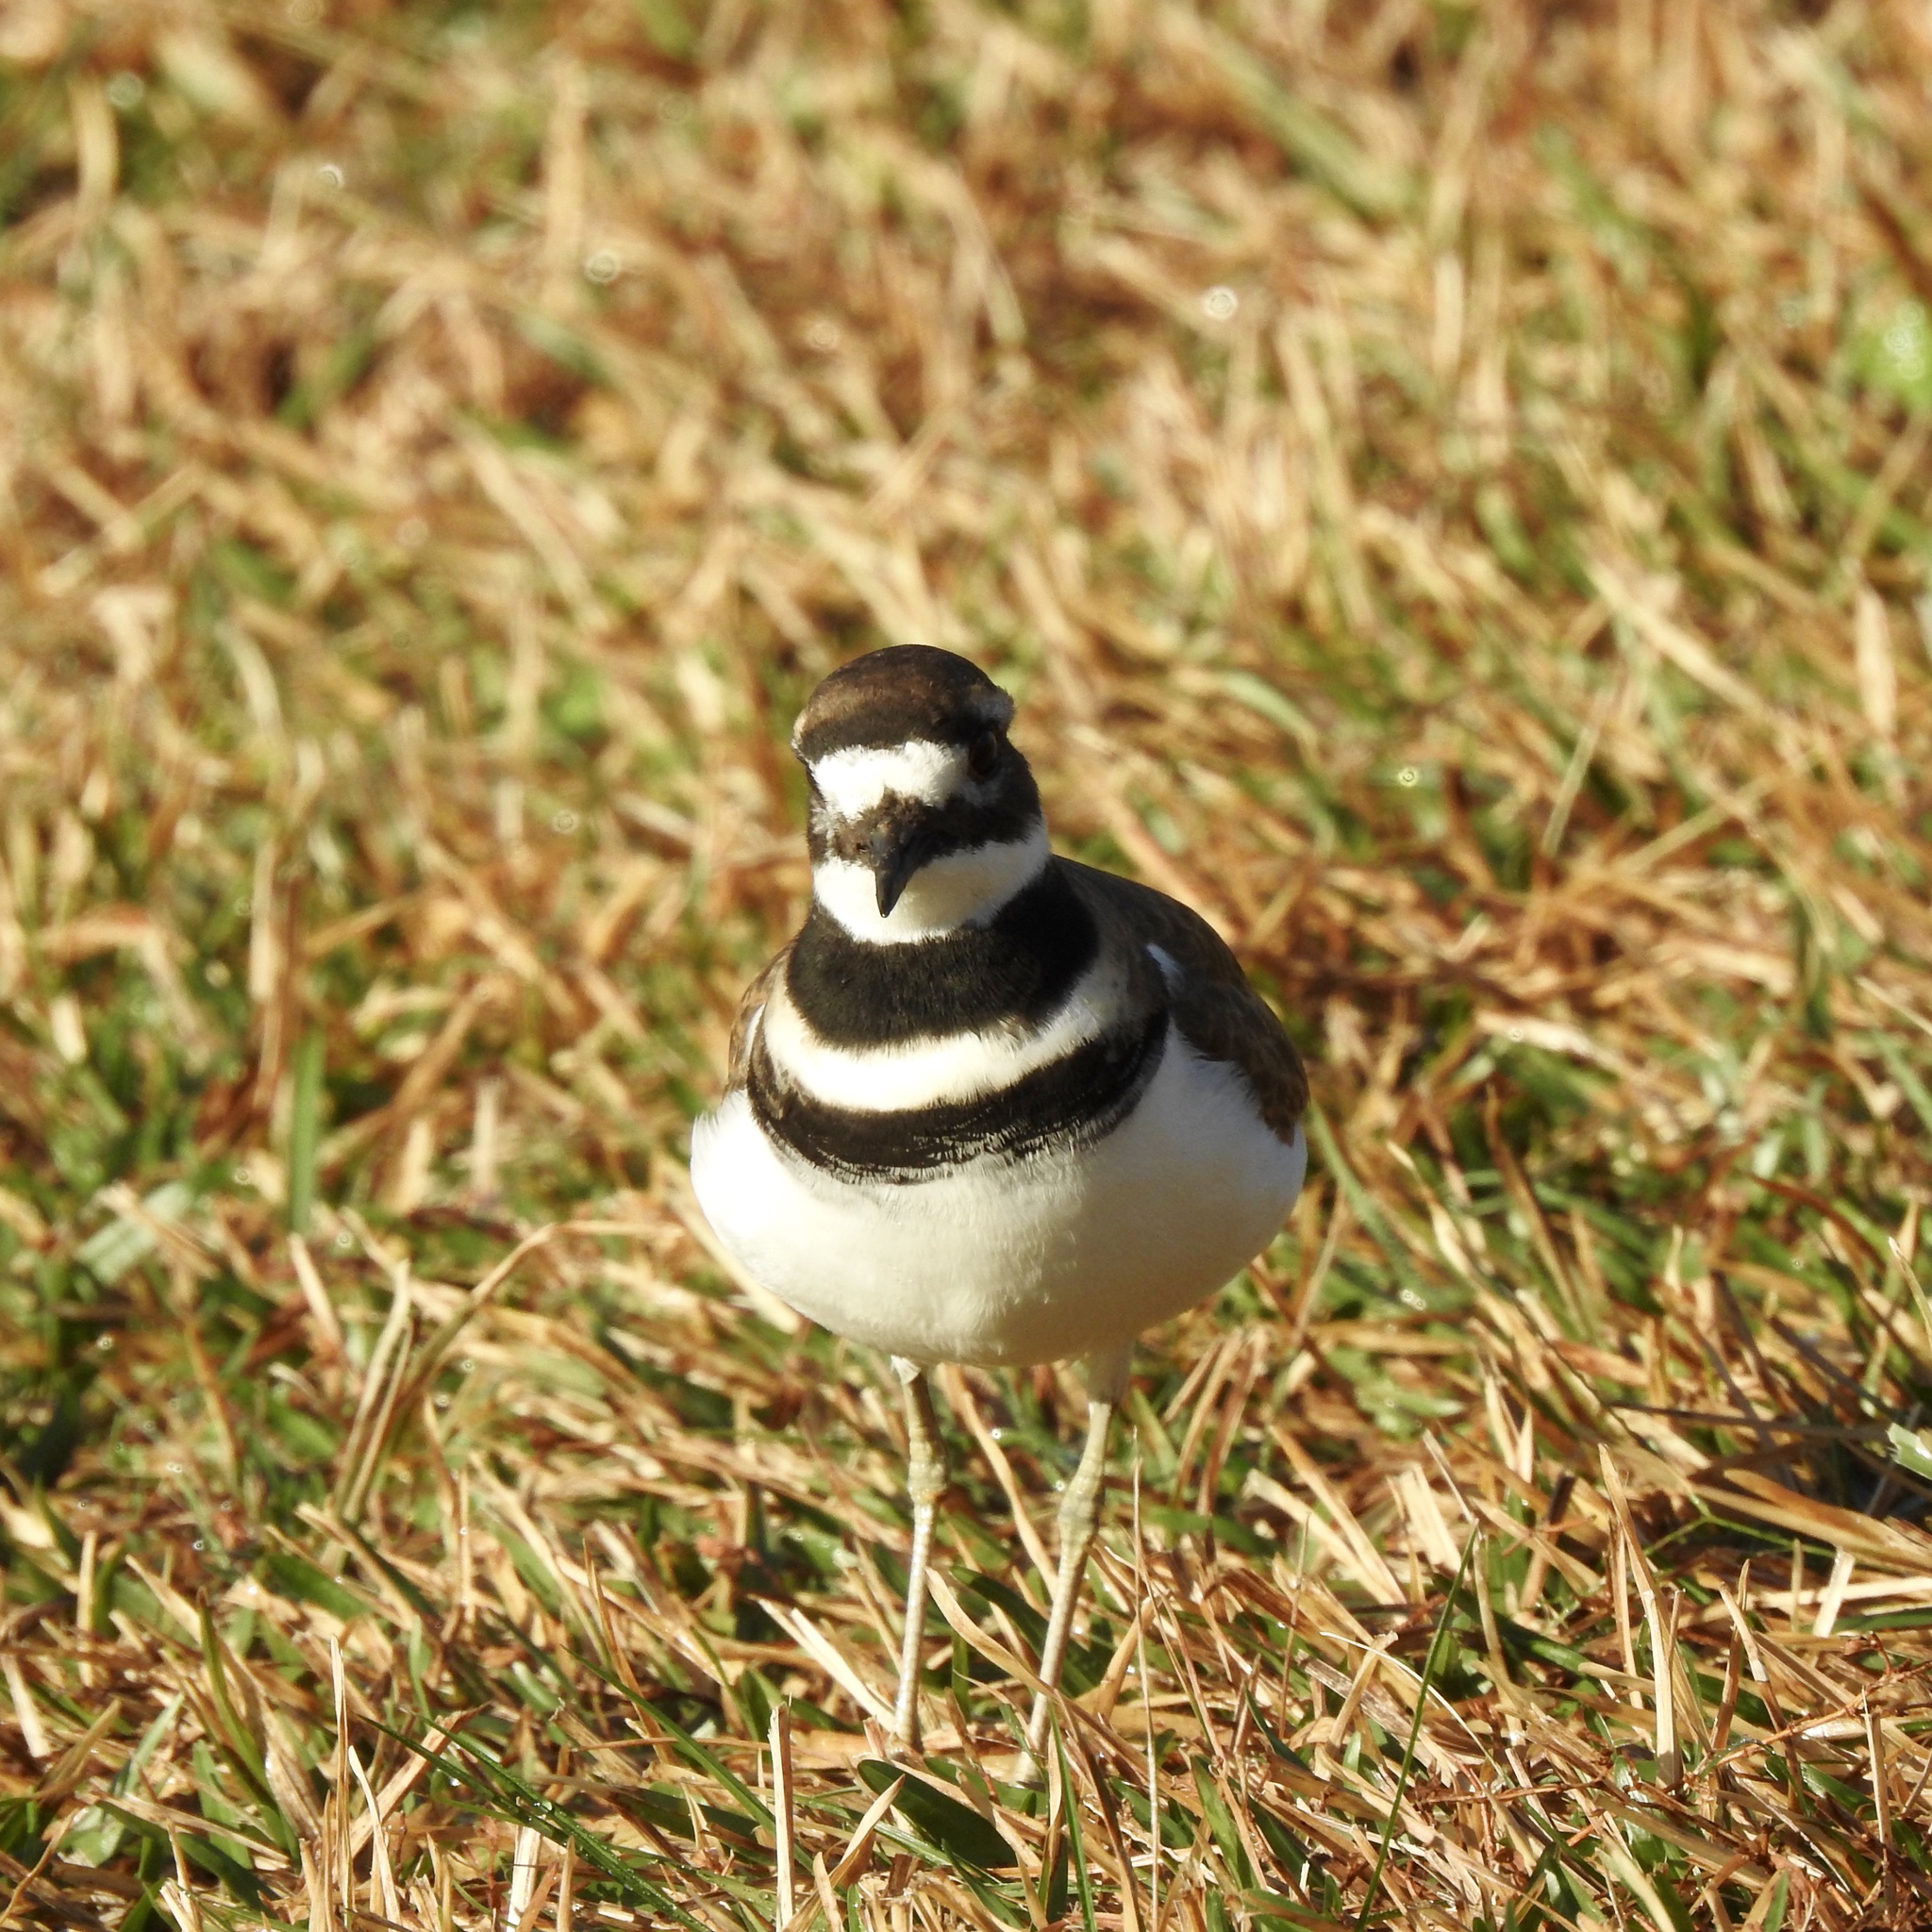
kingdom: Animalia
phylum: Chordata
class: Aves
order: Charadriiformes
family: Charadriidae
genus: Charadrius
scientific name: Charadrius vociferus
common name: Killdeer
